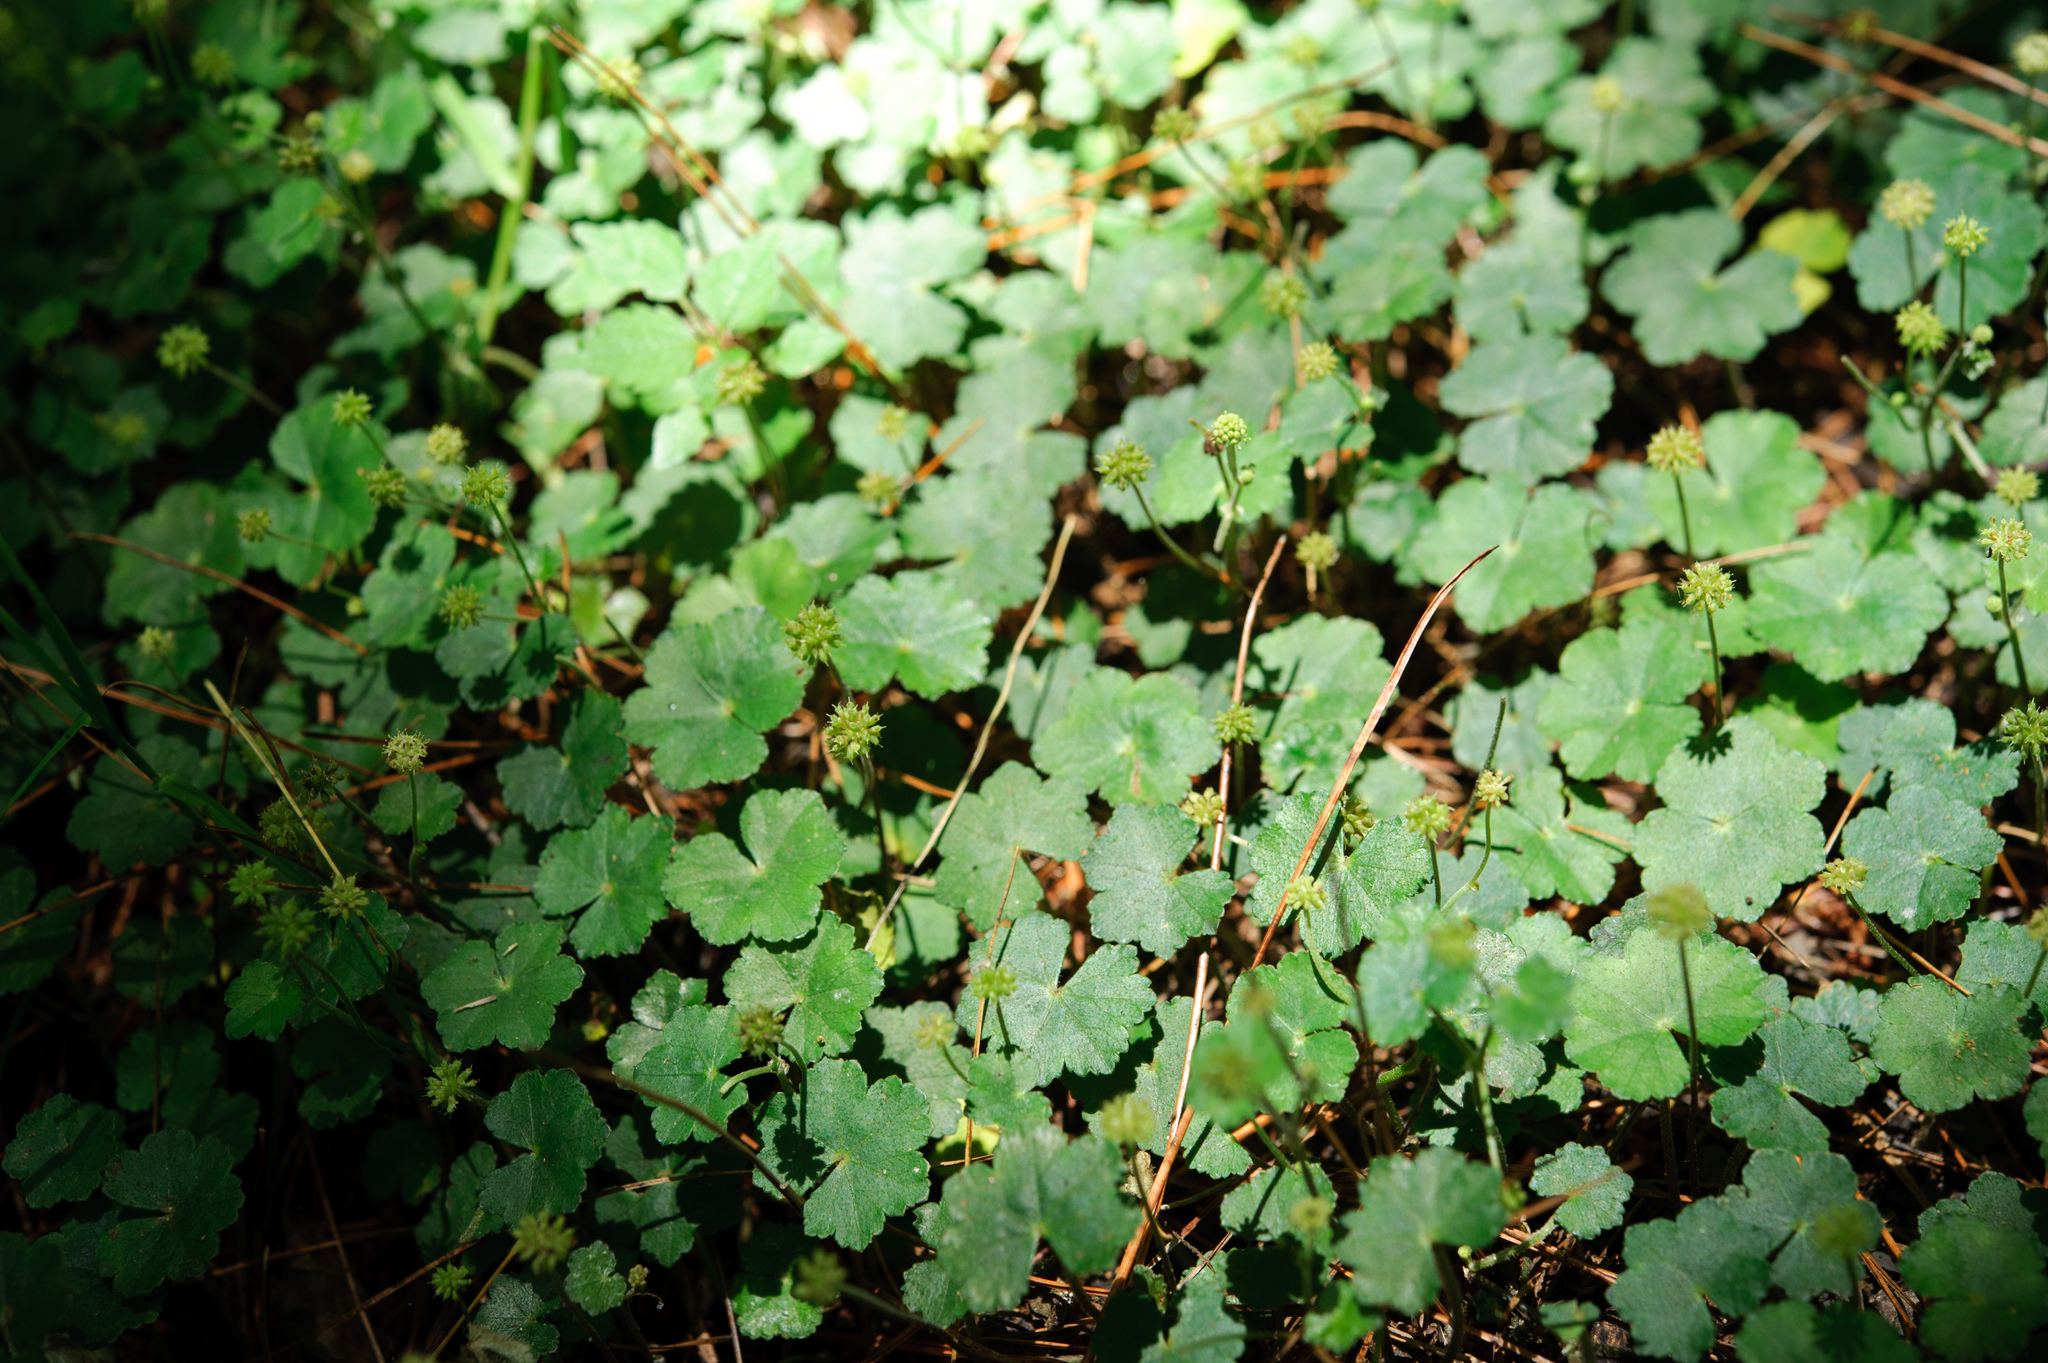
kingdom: Plantae
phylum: Tracheophyta
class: Magnoliopsida
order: Apiales
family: Araliaceae
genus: Hydrocotyle
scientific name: Hydrocotyle setulosa
